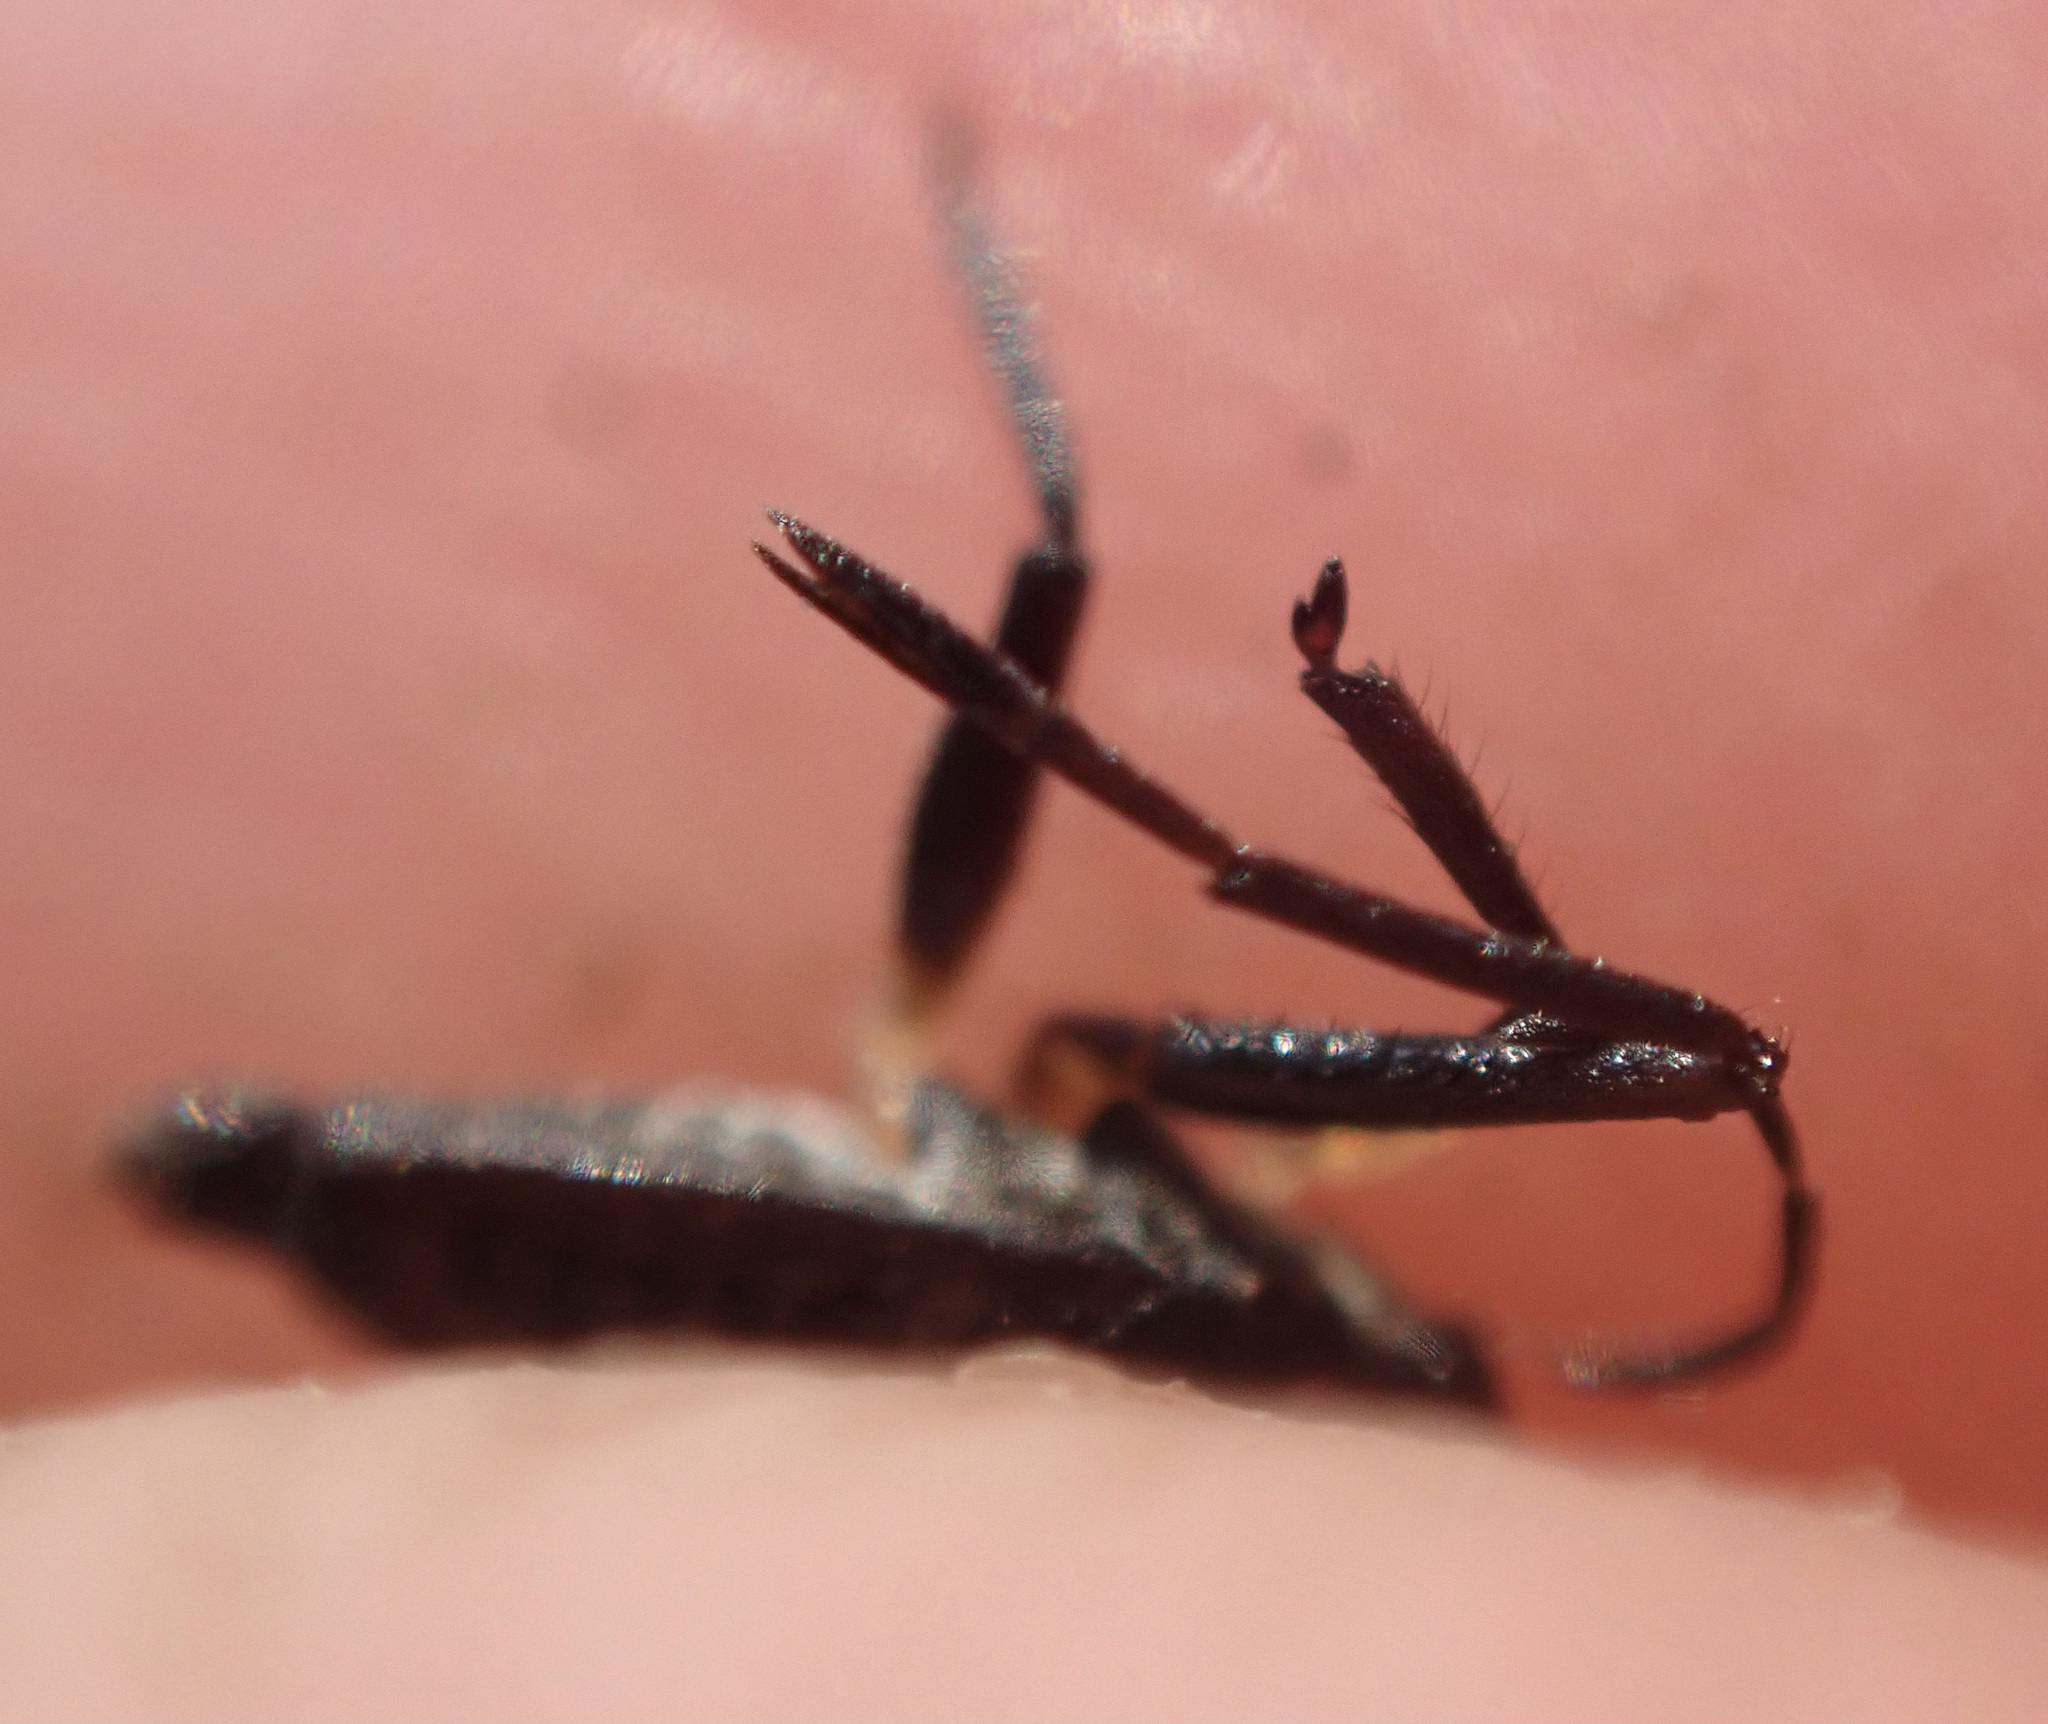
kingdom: Animalia
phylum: Arthropoda
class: Insecta
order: Hemiptera
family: Veliidae
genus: Rhagovelia
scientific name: Rhagovelia
